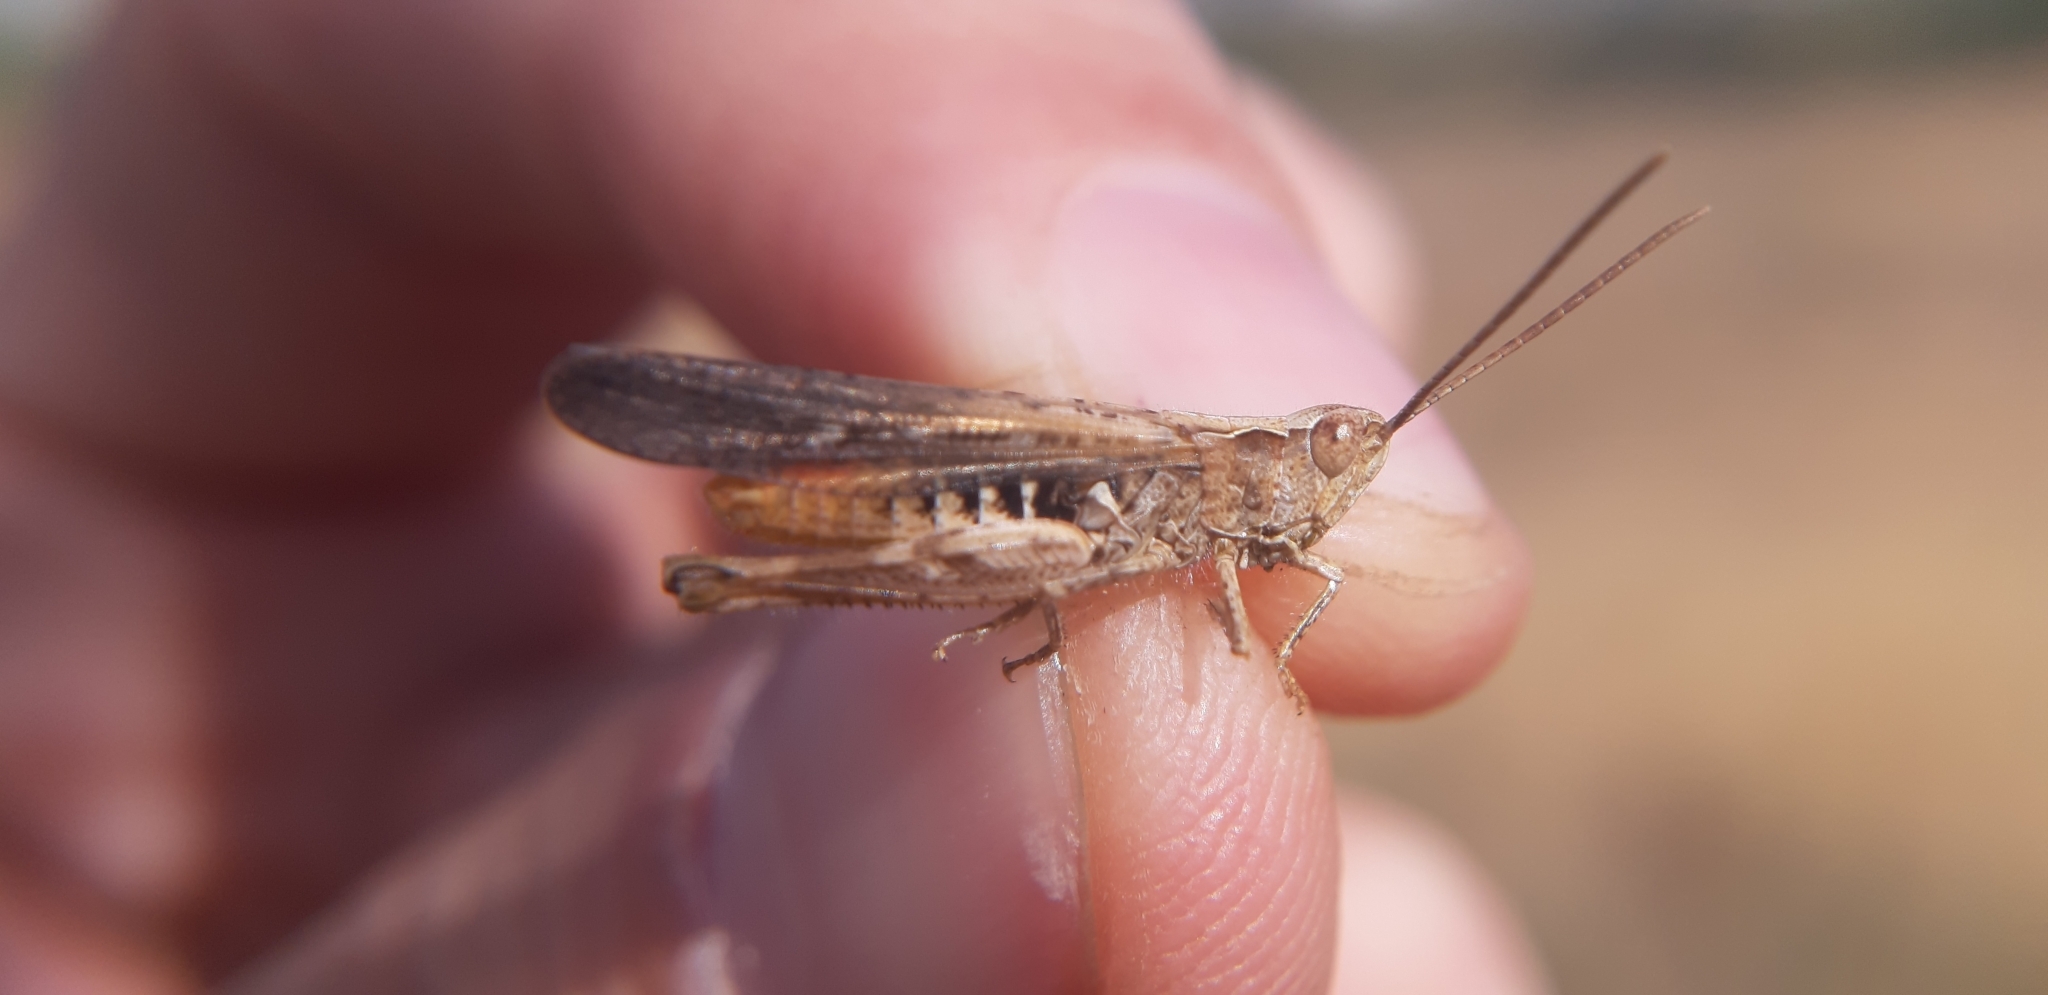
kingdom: Animalia
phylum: Arthropoda
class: Insecta
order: Orthoptera
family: Acrididae
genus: Chorthippus
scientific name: Chorthippus brunneus
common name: Field grasshopper
